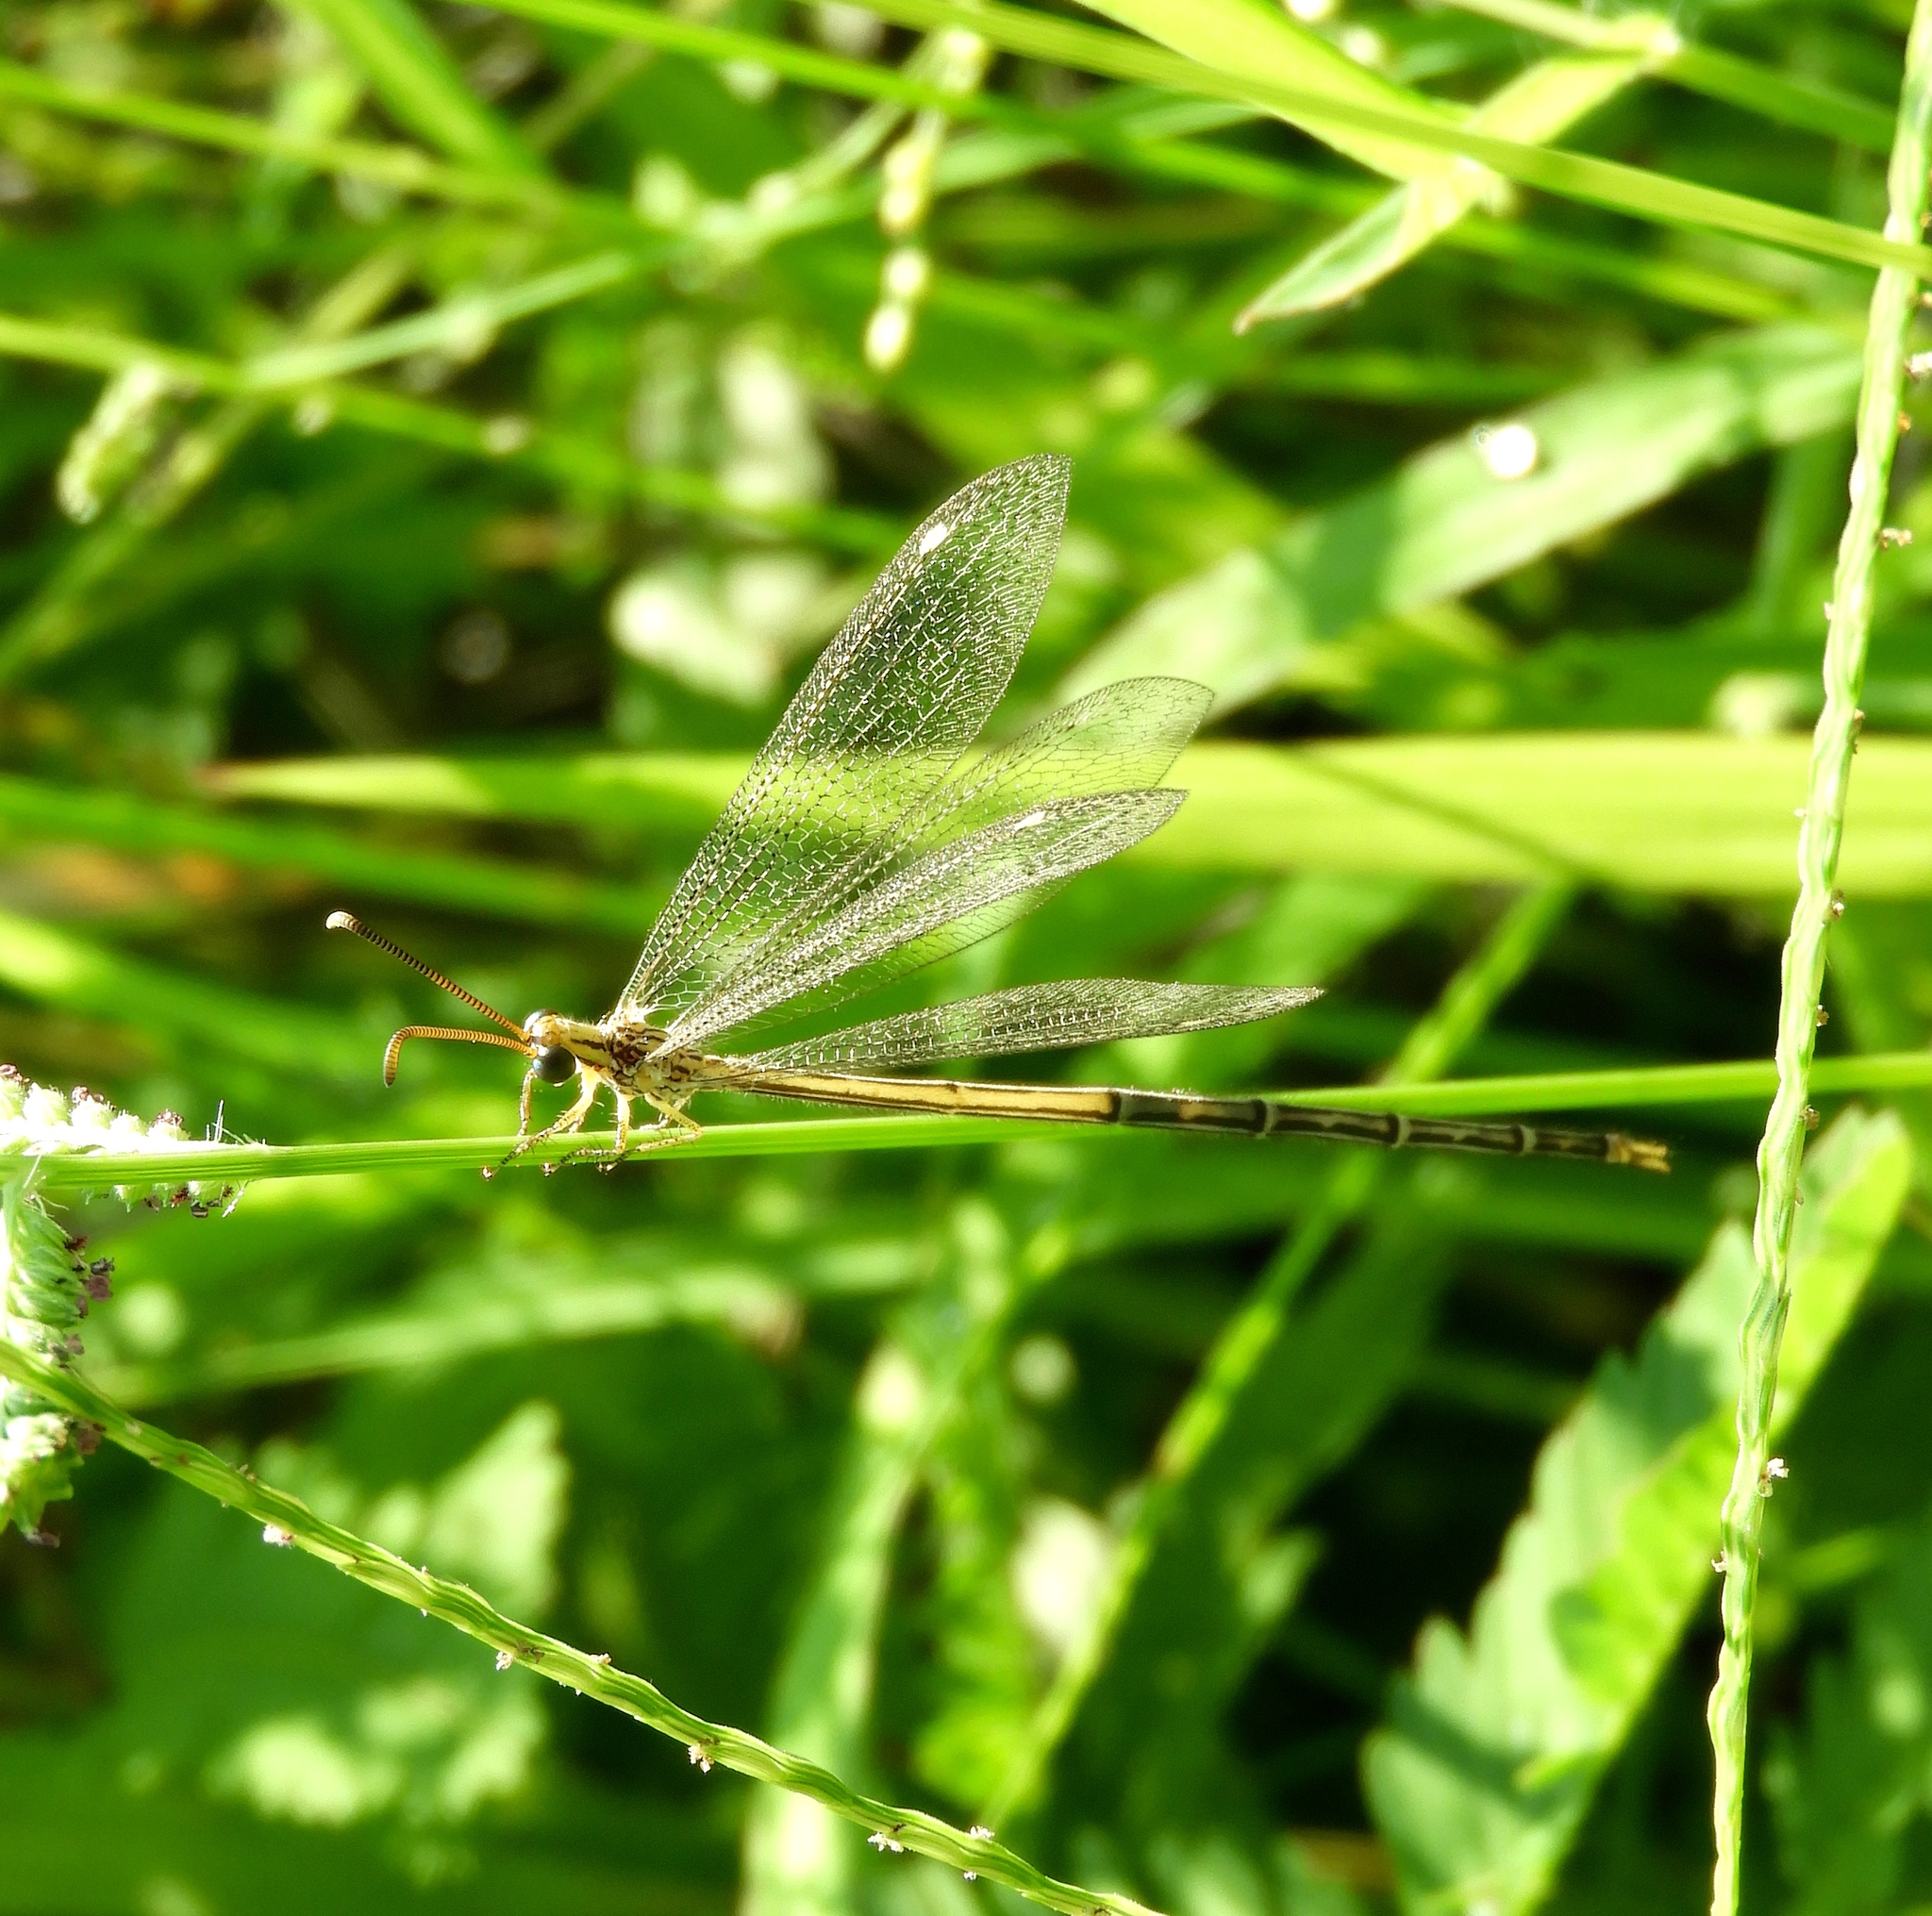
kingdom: Animalia
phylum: Arthropoda
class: Insecta
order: Neuroptera
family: Myrmeleontidae
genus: Myrmeleon
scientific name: Myrmeleon
